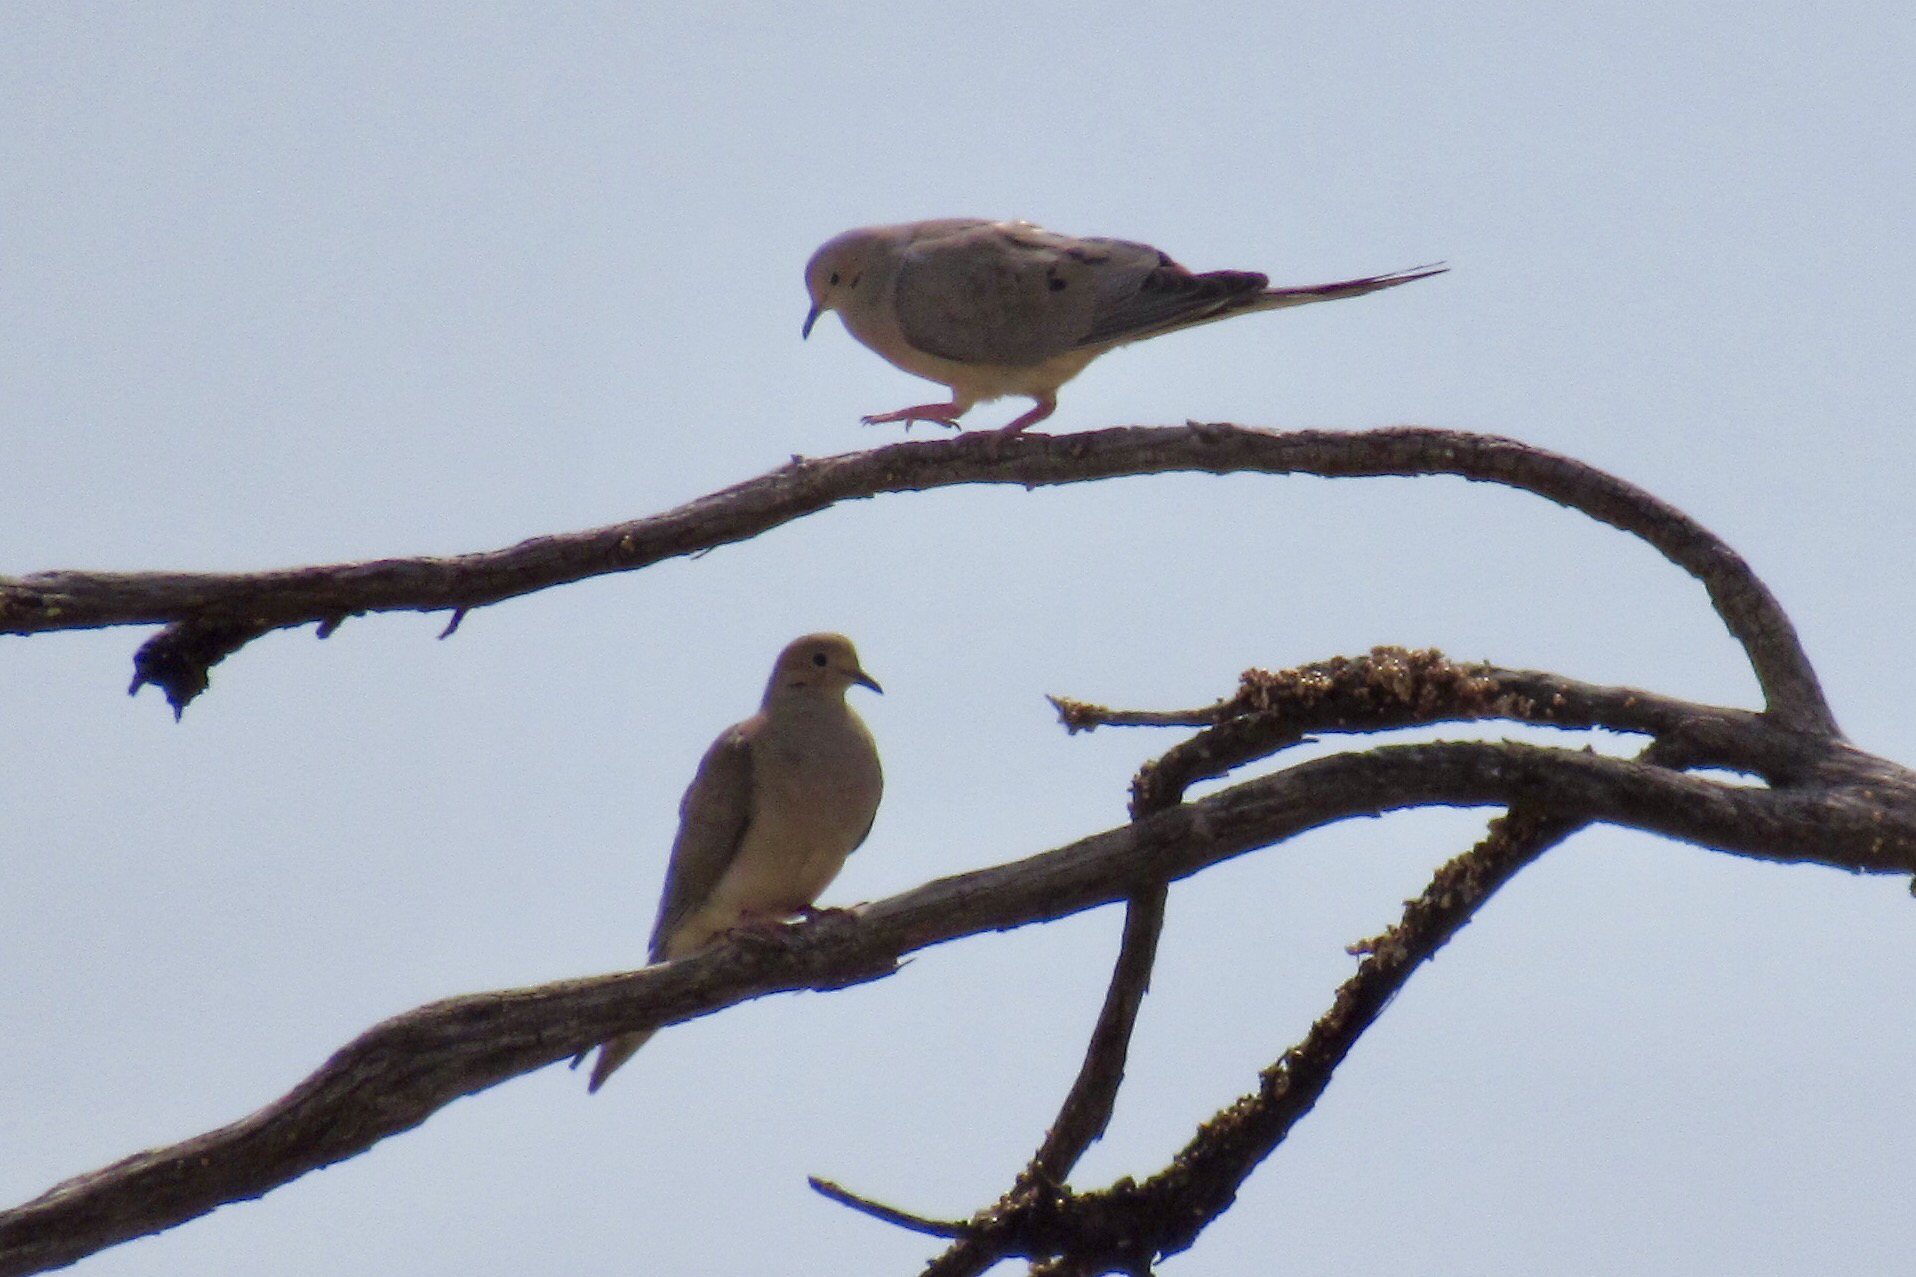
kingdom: Animalia
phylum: Chordata
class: Aves
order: Columbiformes
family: Columbidae
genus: Zenaida
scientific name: Zenaida macroura
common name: Mourning dove
